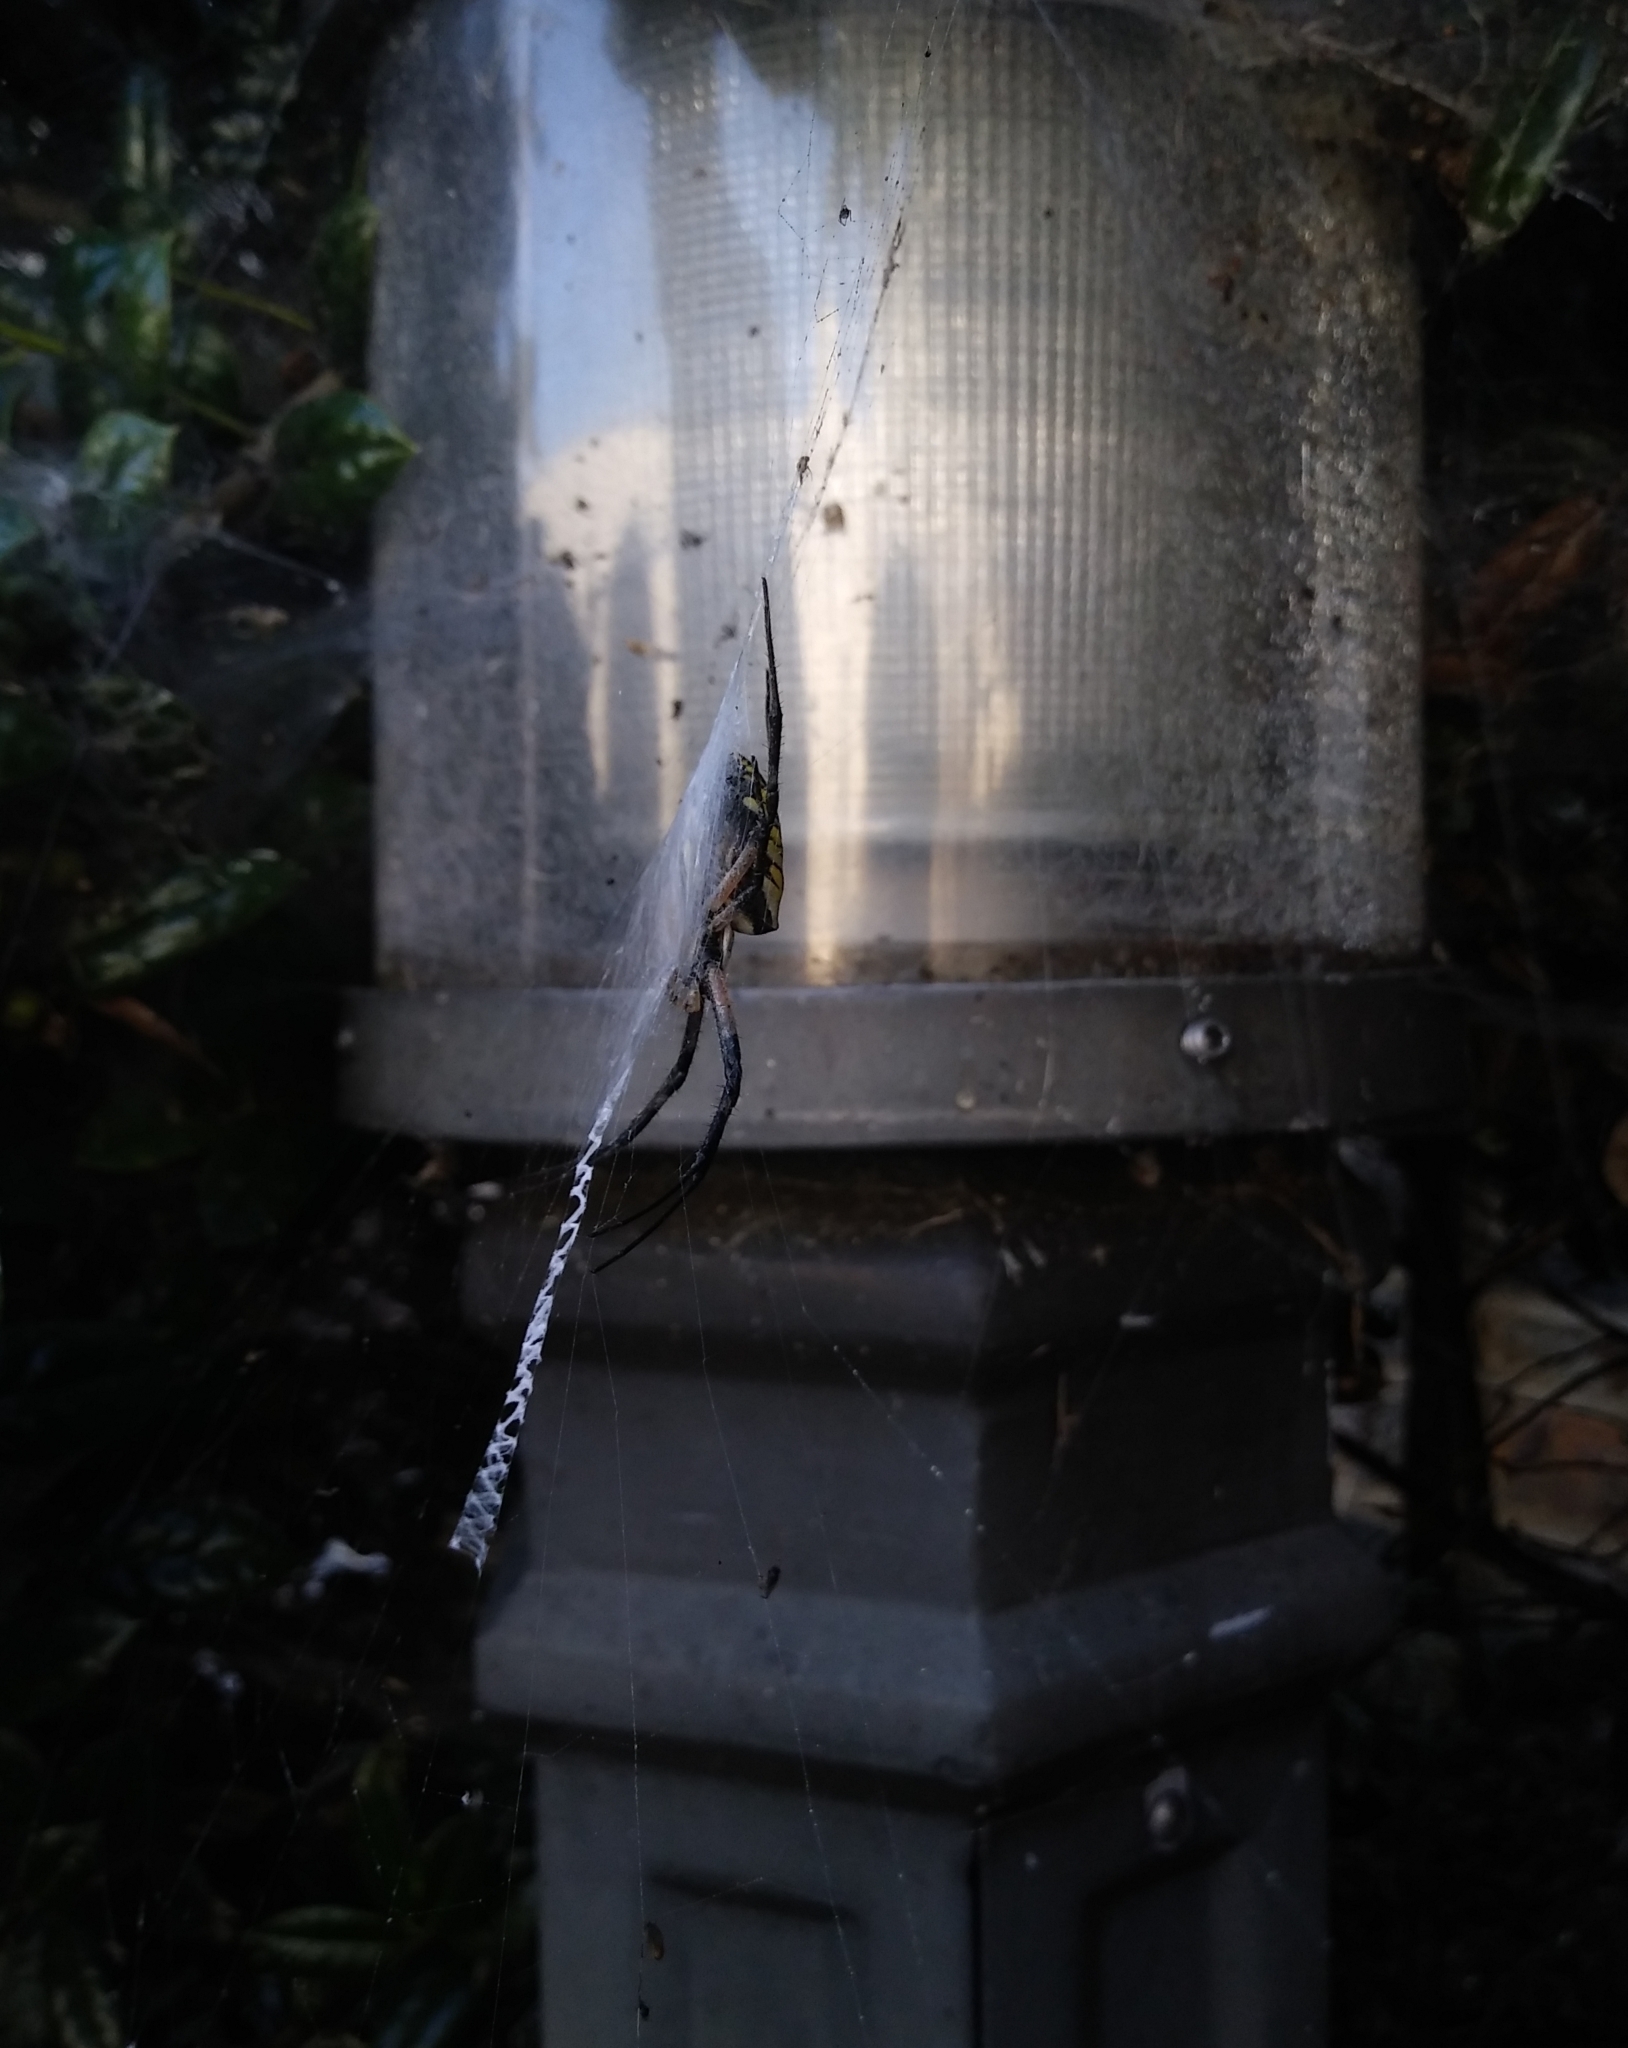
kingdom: Animalia
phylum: Arthropoda
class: Arachnida
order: Araneae
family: Araneidae
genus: Argiope
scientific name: Argiope aurantia
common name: Orb weavers
